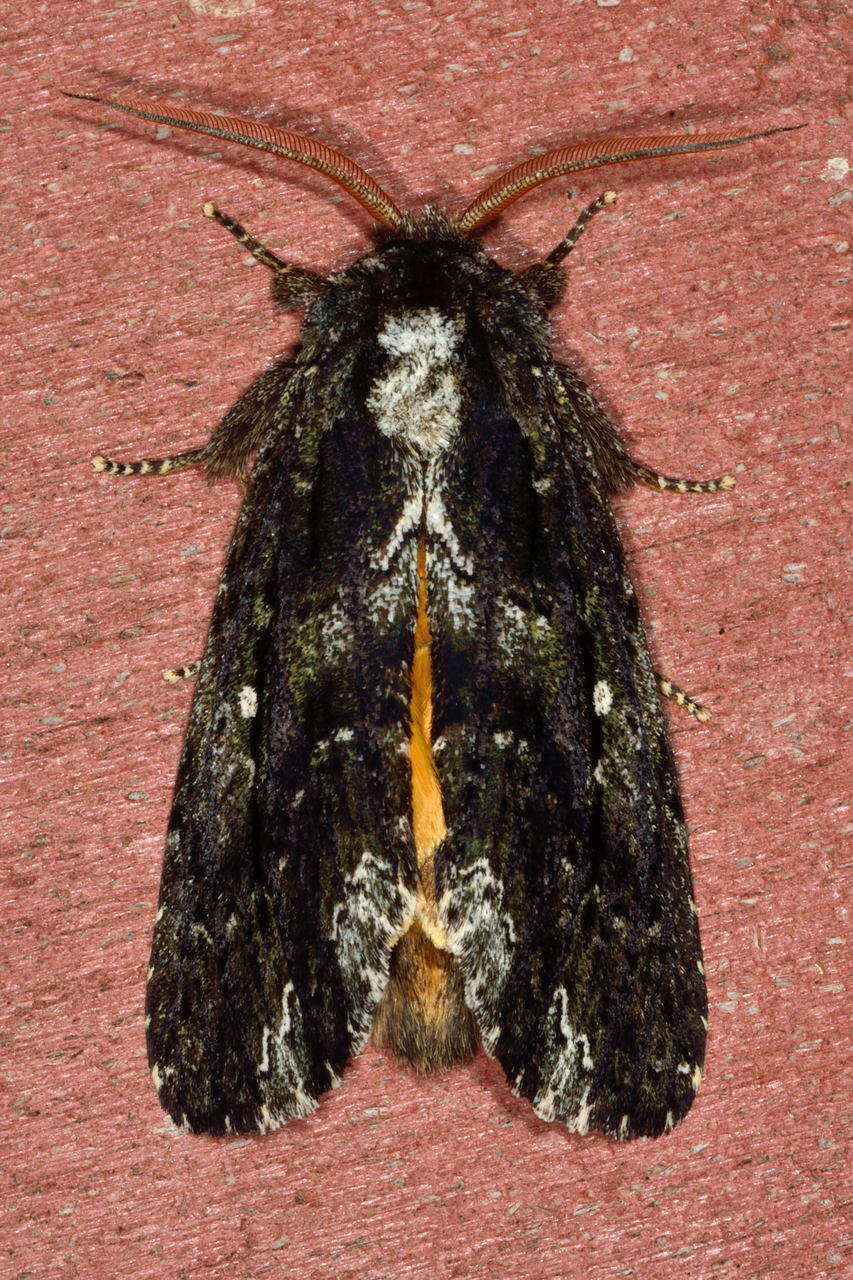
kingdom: Animalia
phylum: Arthropoda
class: Insecta
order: Lepidoptera
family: Notodontidae
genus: Neola
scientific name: Neola semiaurata
